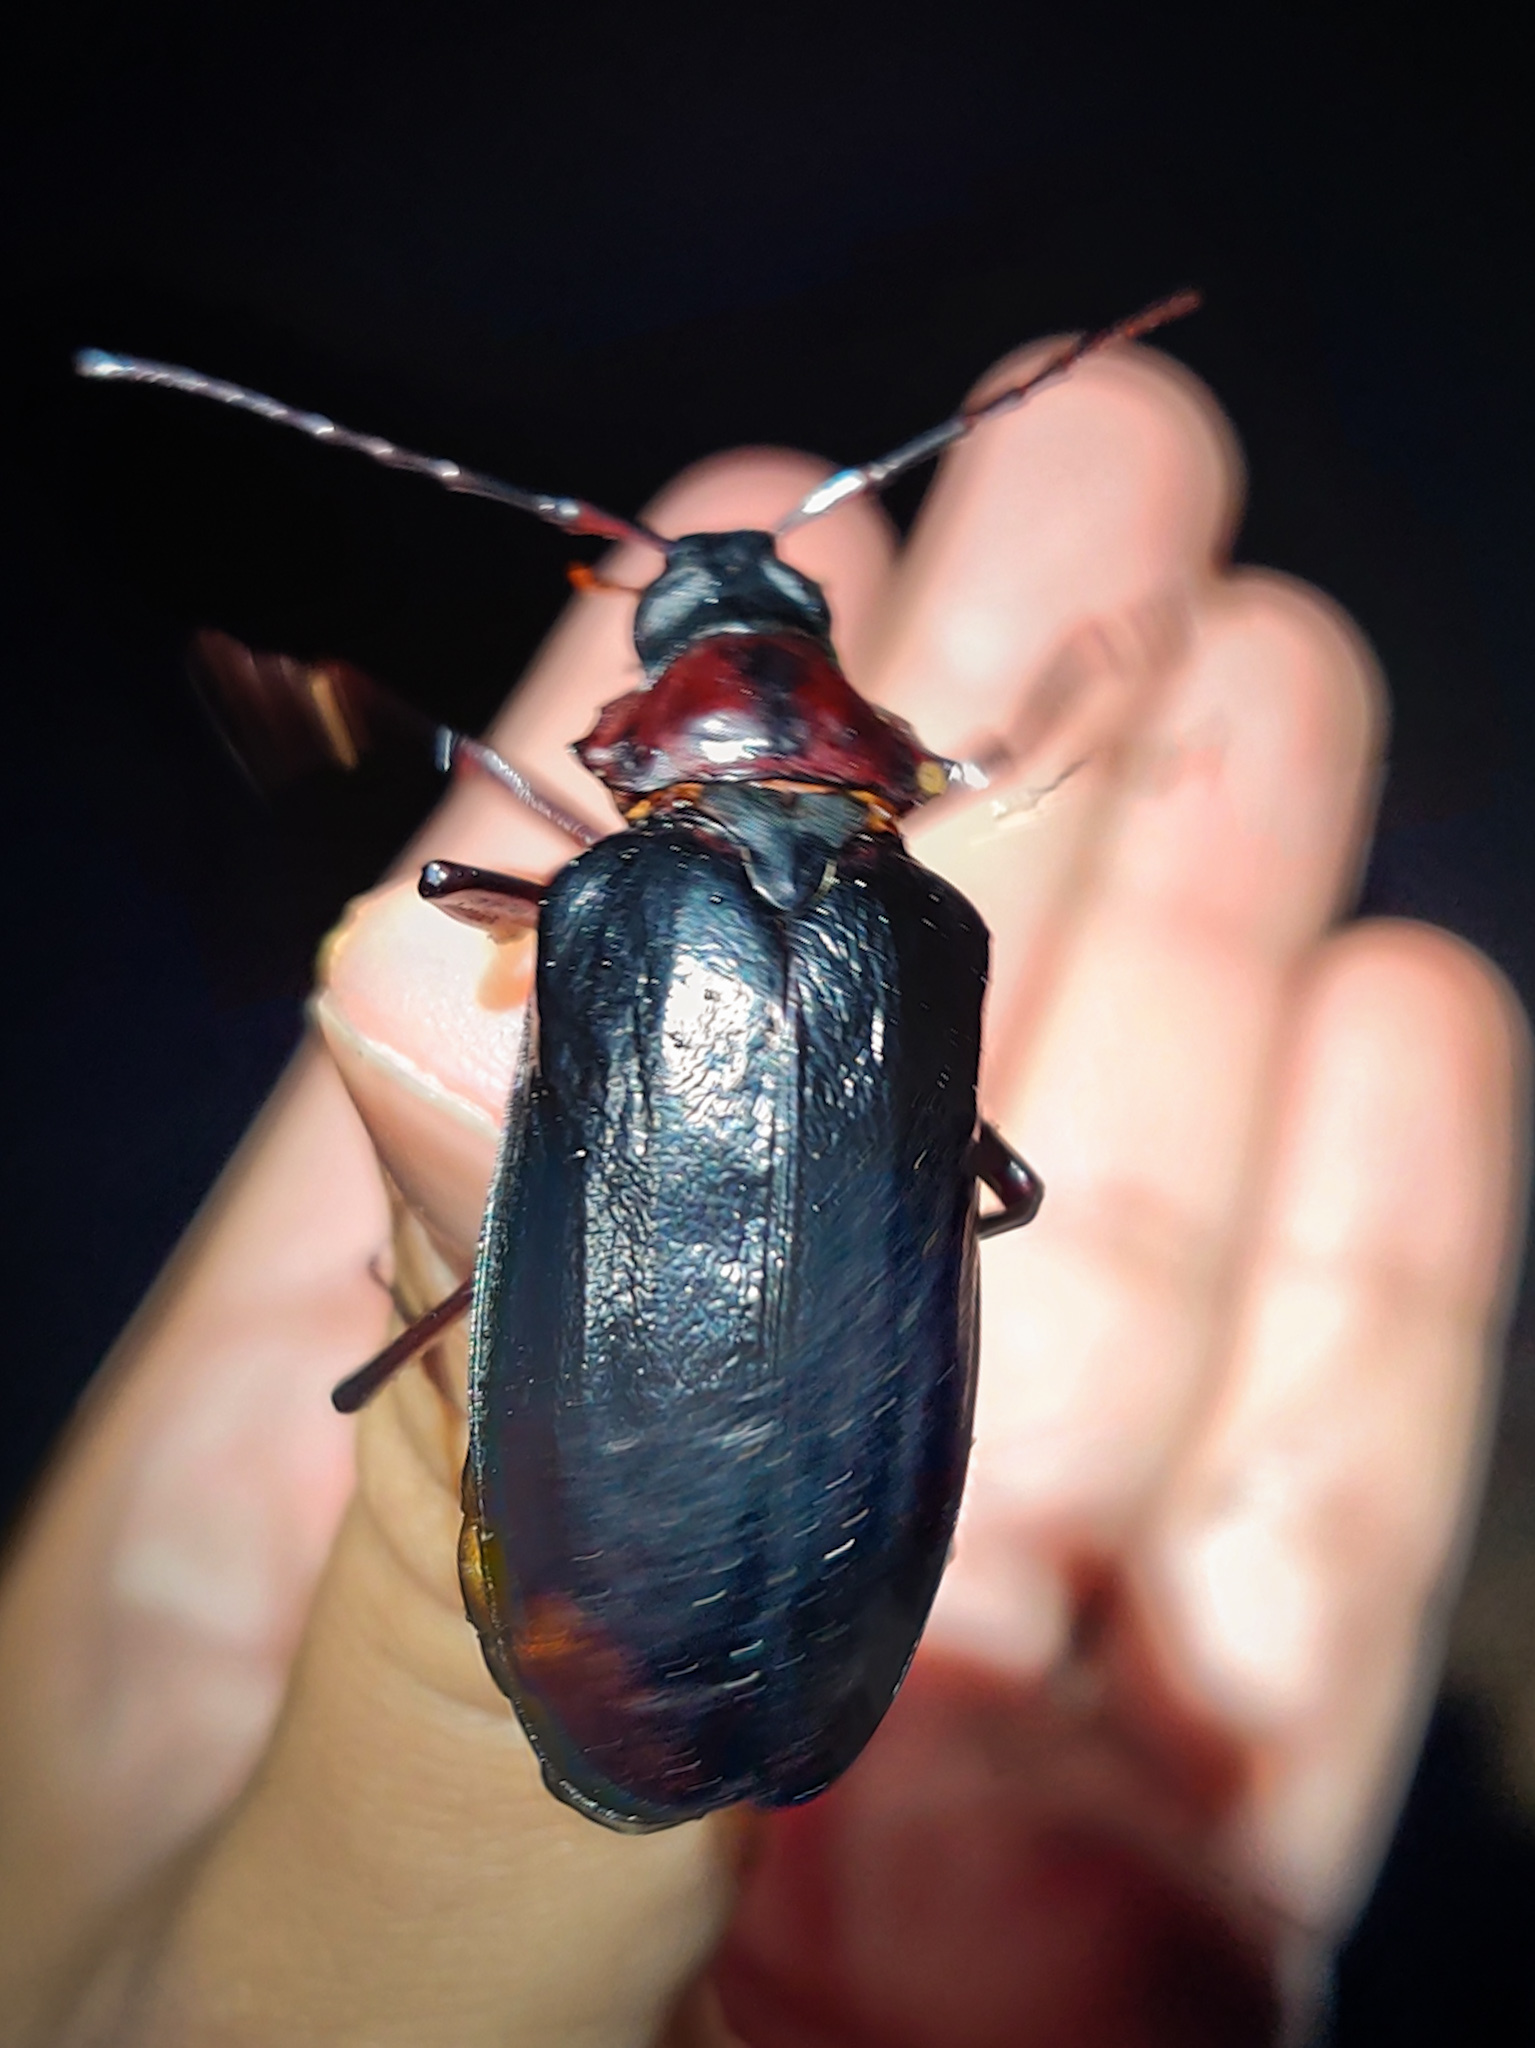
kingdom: Animalia
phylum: Arthropoda
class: Insecta
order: Coleoptera
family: Cerambycidae
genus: Dorysthenes
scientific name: Dorysthenes rostratus
